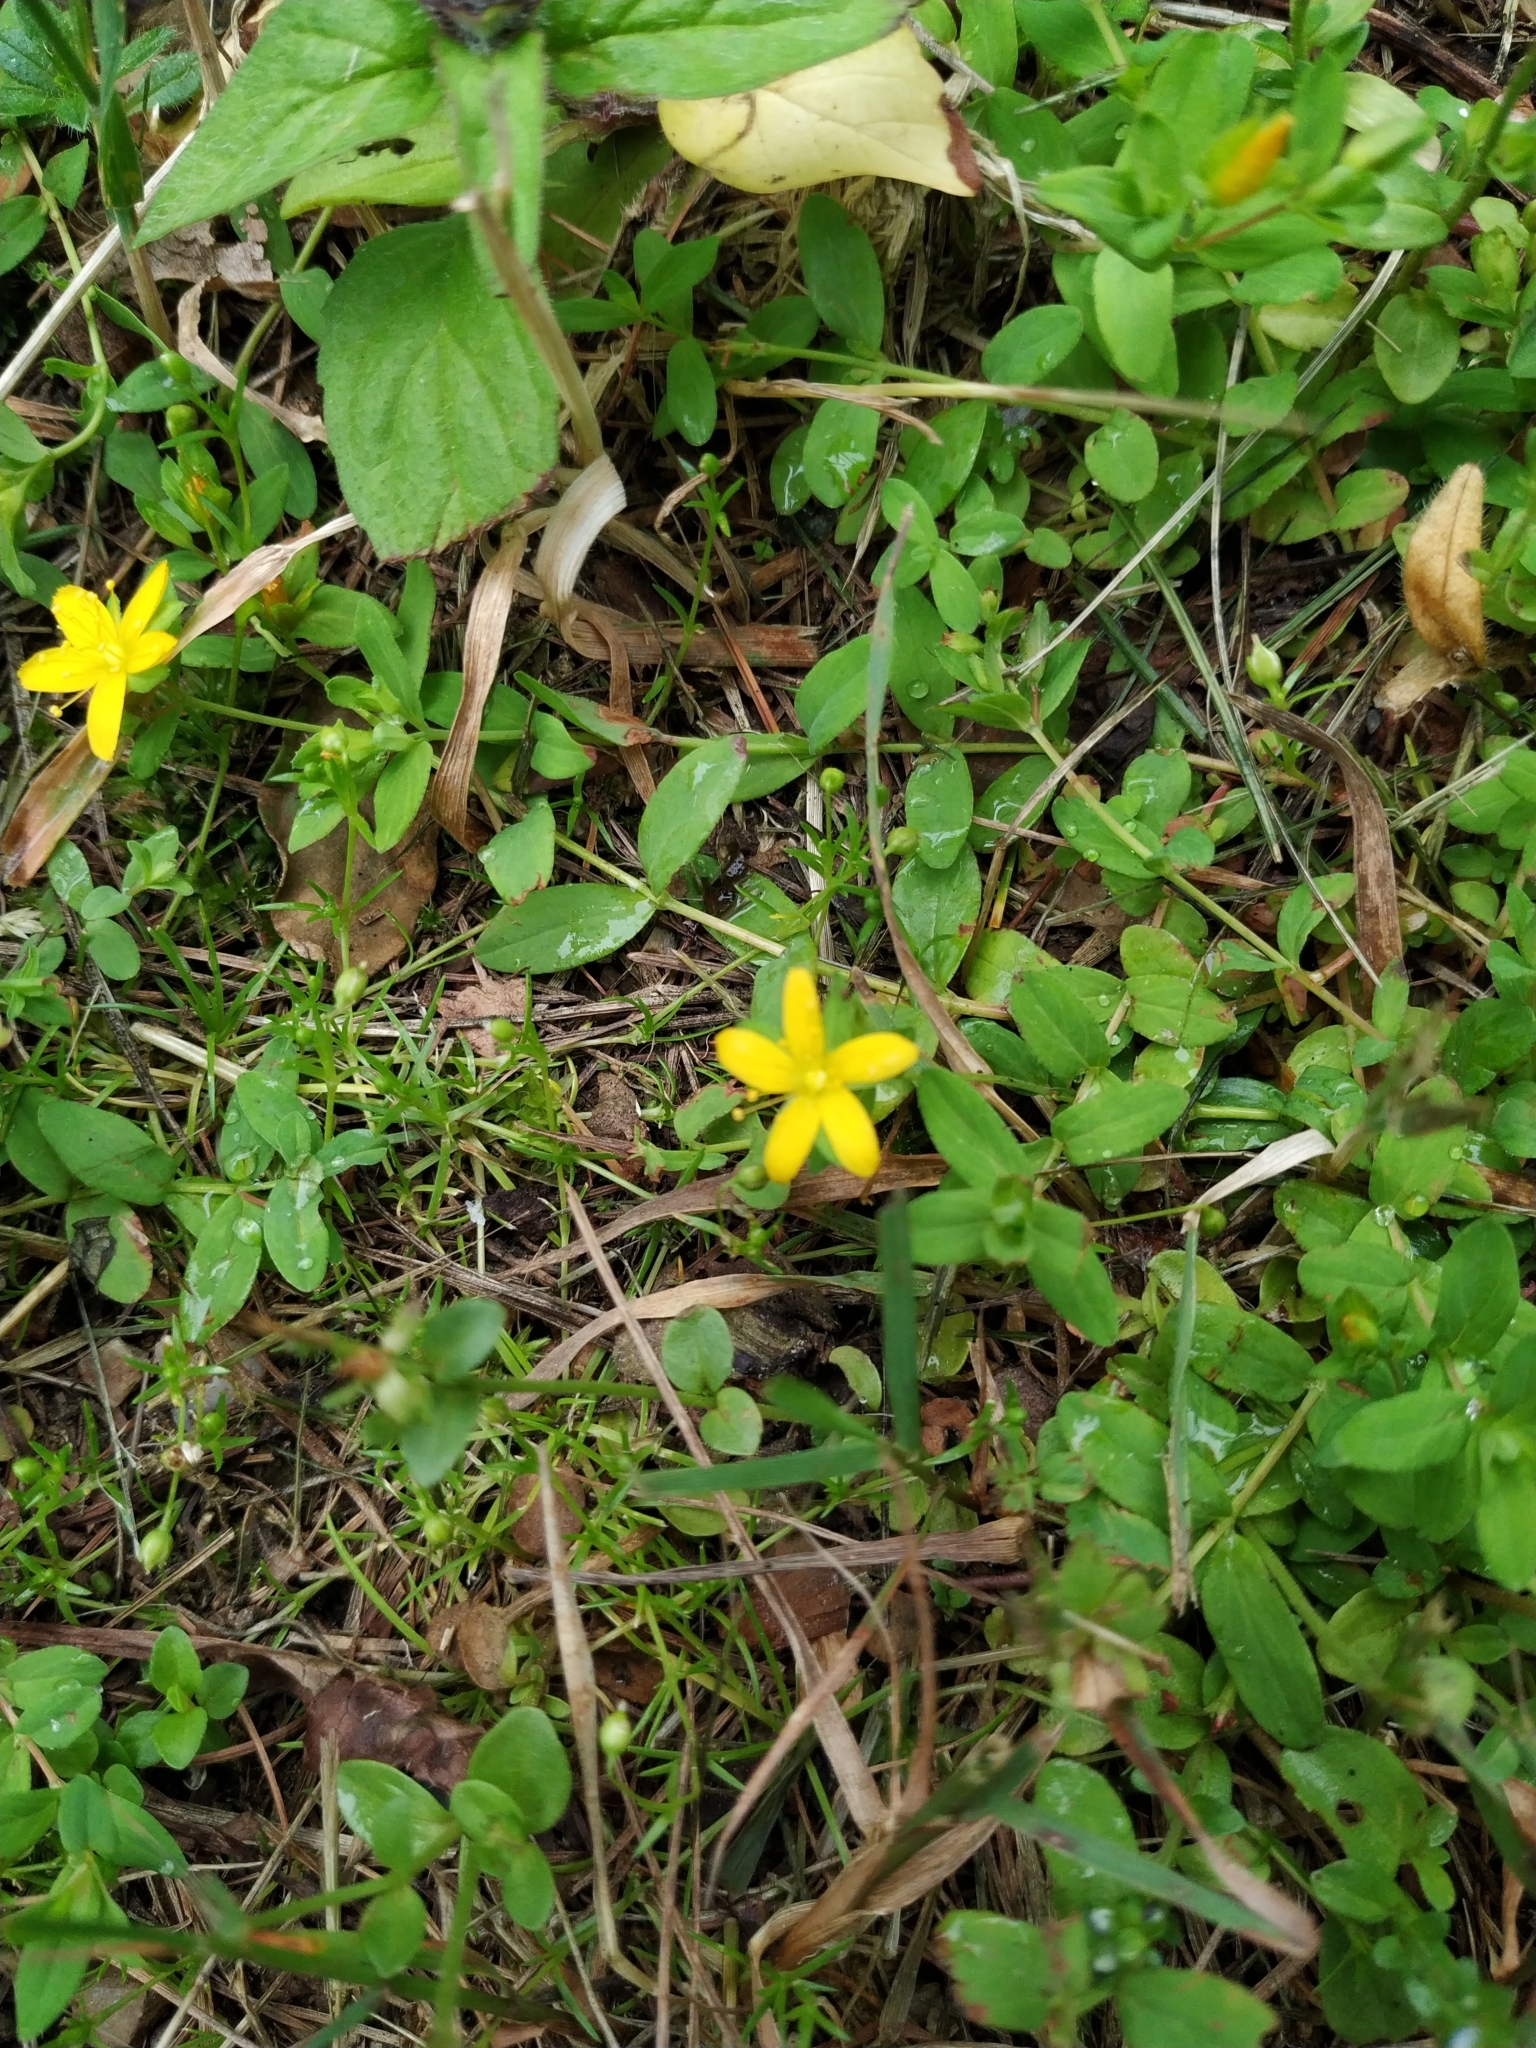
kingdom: Plantae
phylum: Tracheophyta
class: Magnoliopsida
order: Malpighiales
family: Hypericaceae
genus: Hypericum
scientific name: Hypericum humifusum
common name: Trailing st. john's-wort
